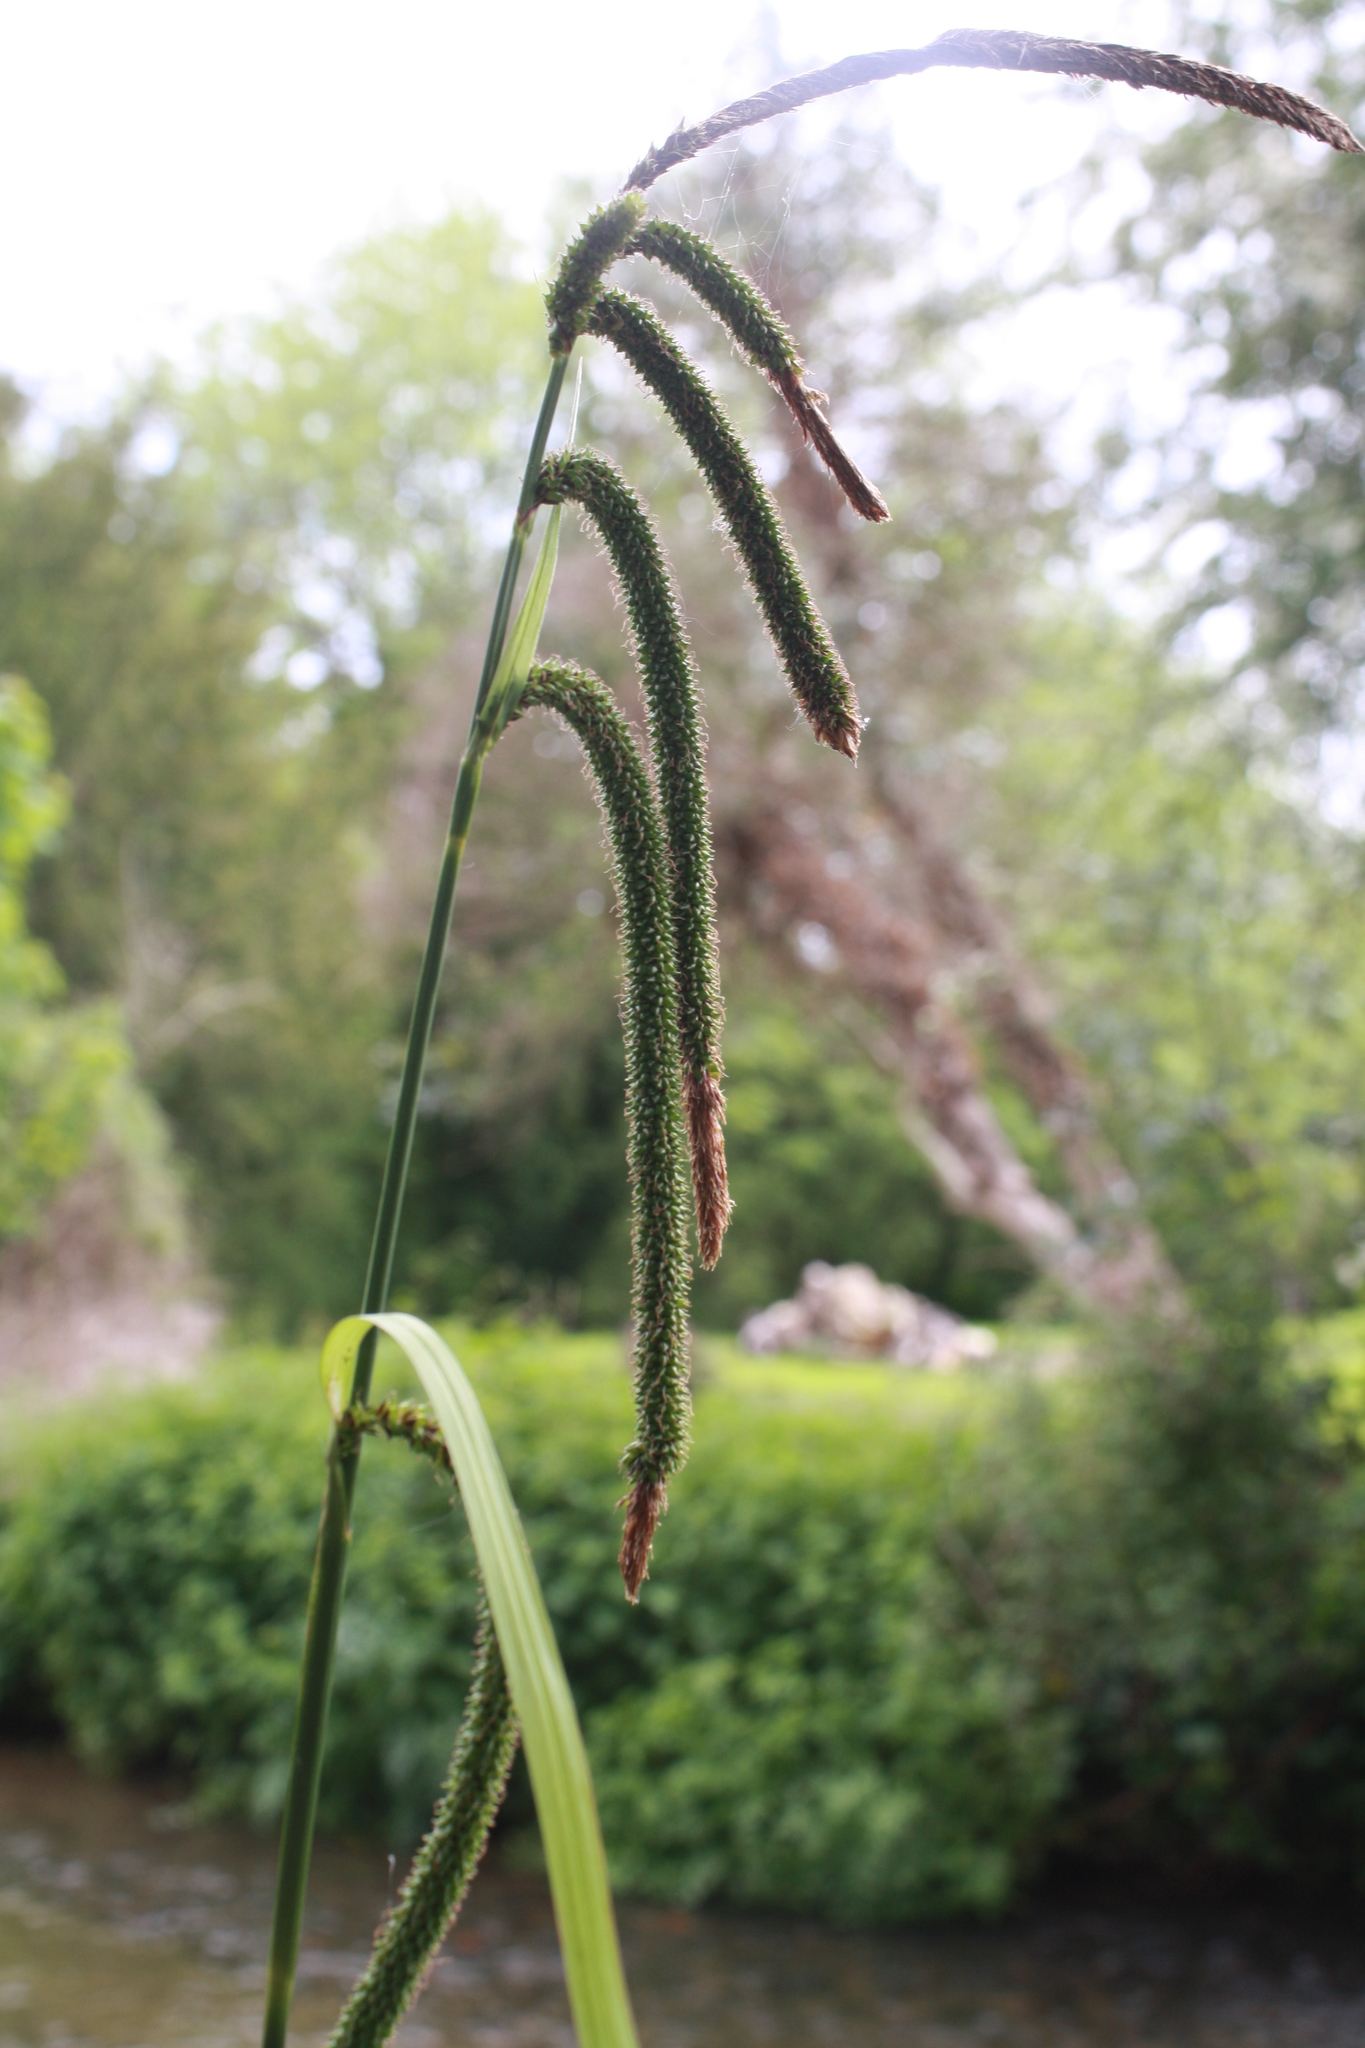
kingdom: Plantae
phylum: Tracheophyta
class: Liliopsida
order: Poales
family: Cyperaceae
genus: Carex
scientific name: Carex pendula
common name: Pendulous sedge
